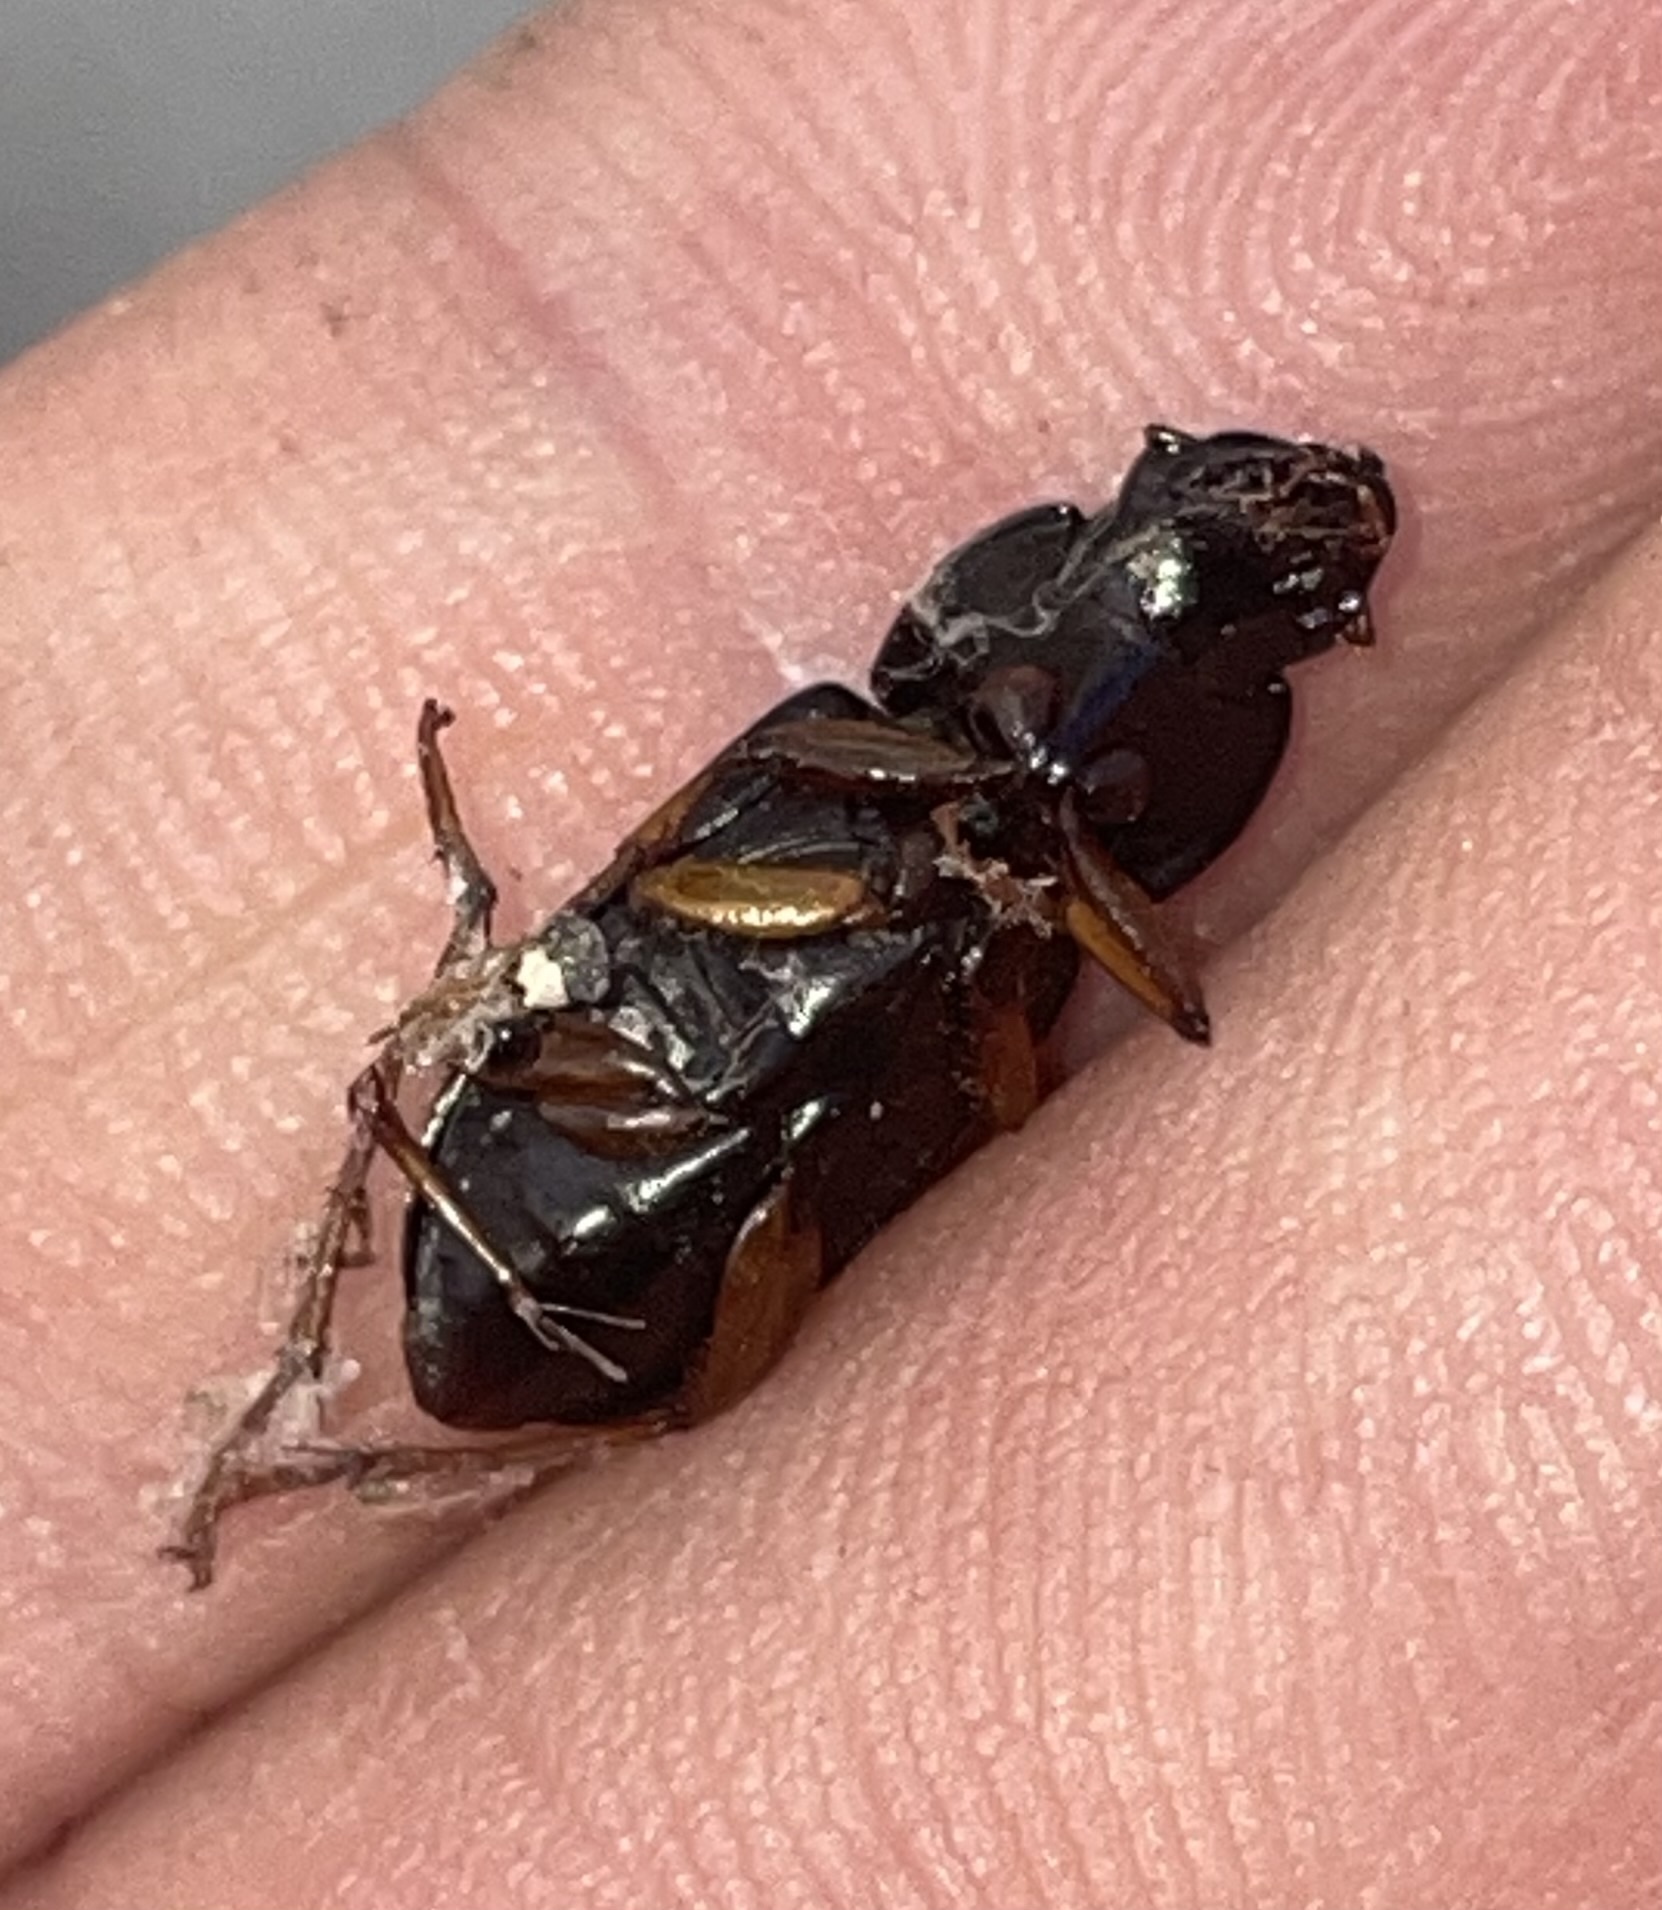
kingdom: Animalia
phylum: Arthropoda
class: Insecta
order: Coleoptera
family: Carabidae
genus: Harpalus
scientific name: Harpalus pensylvanicus
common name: Pennsylvania dingy ground beetle
